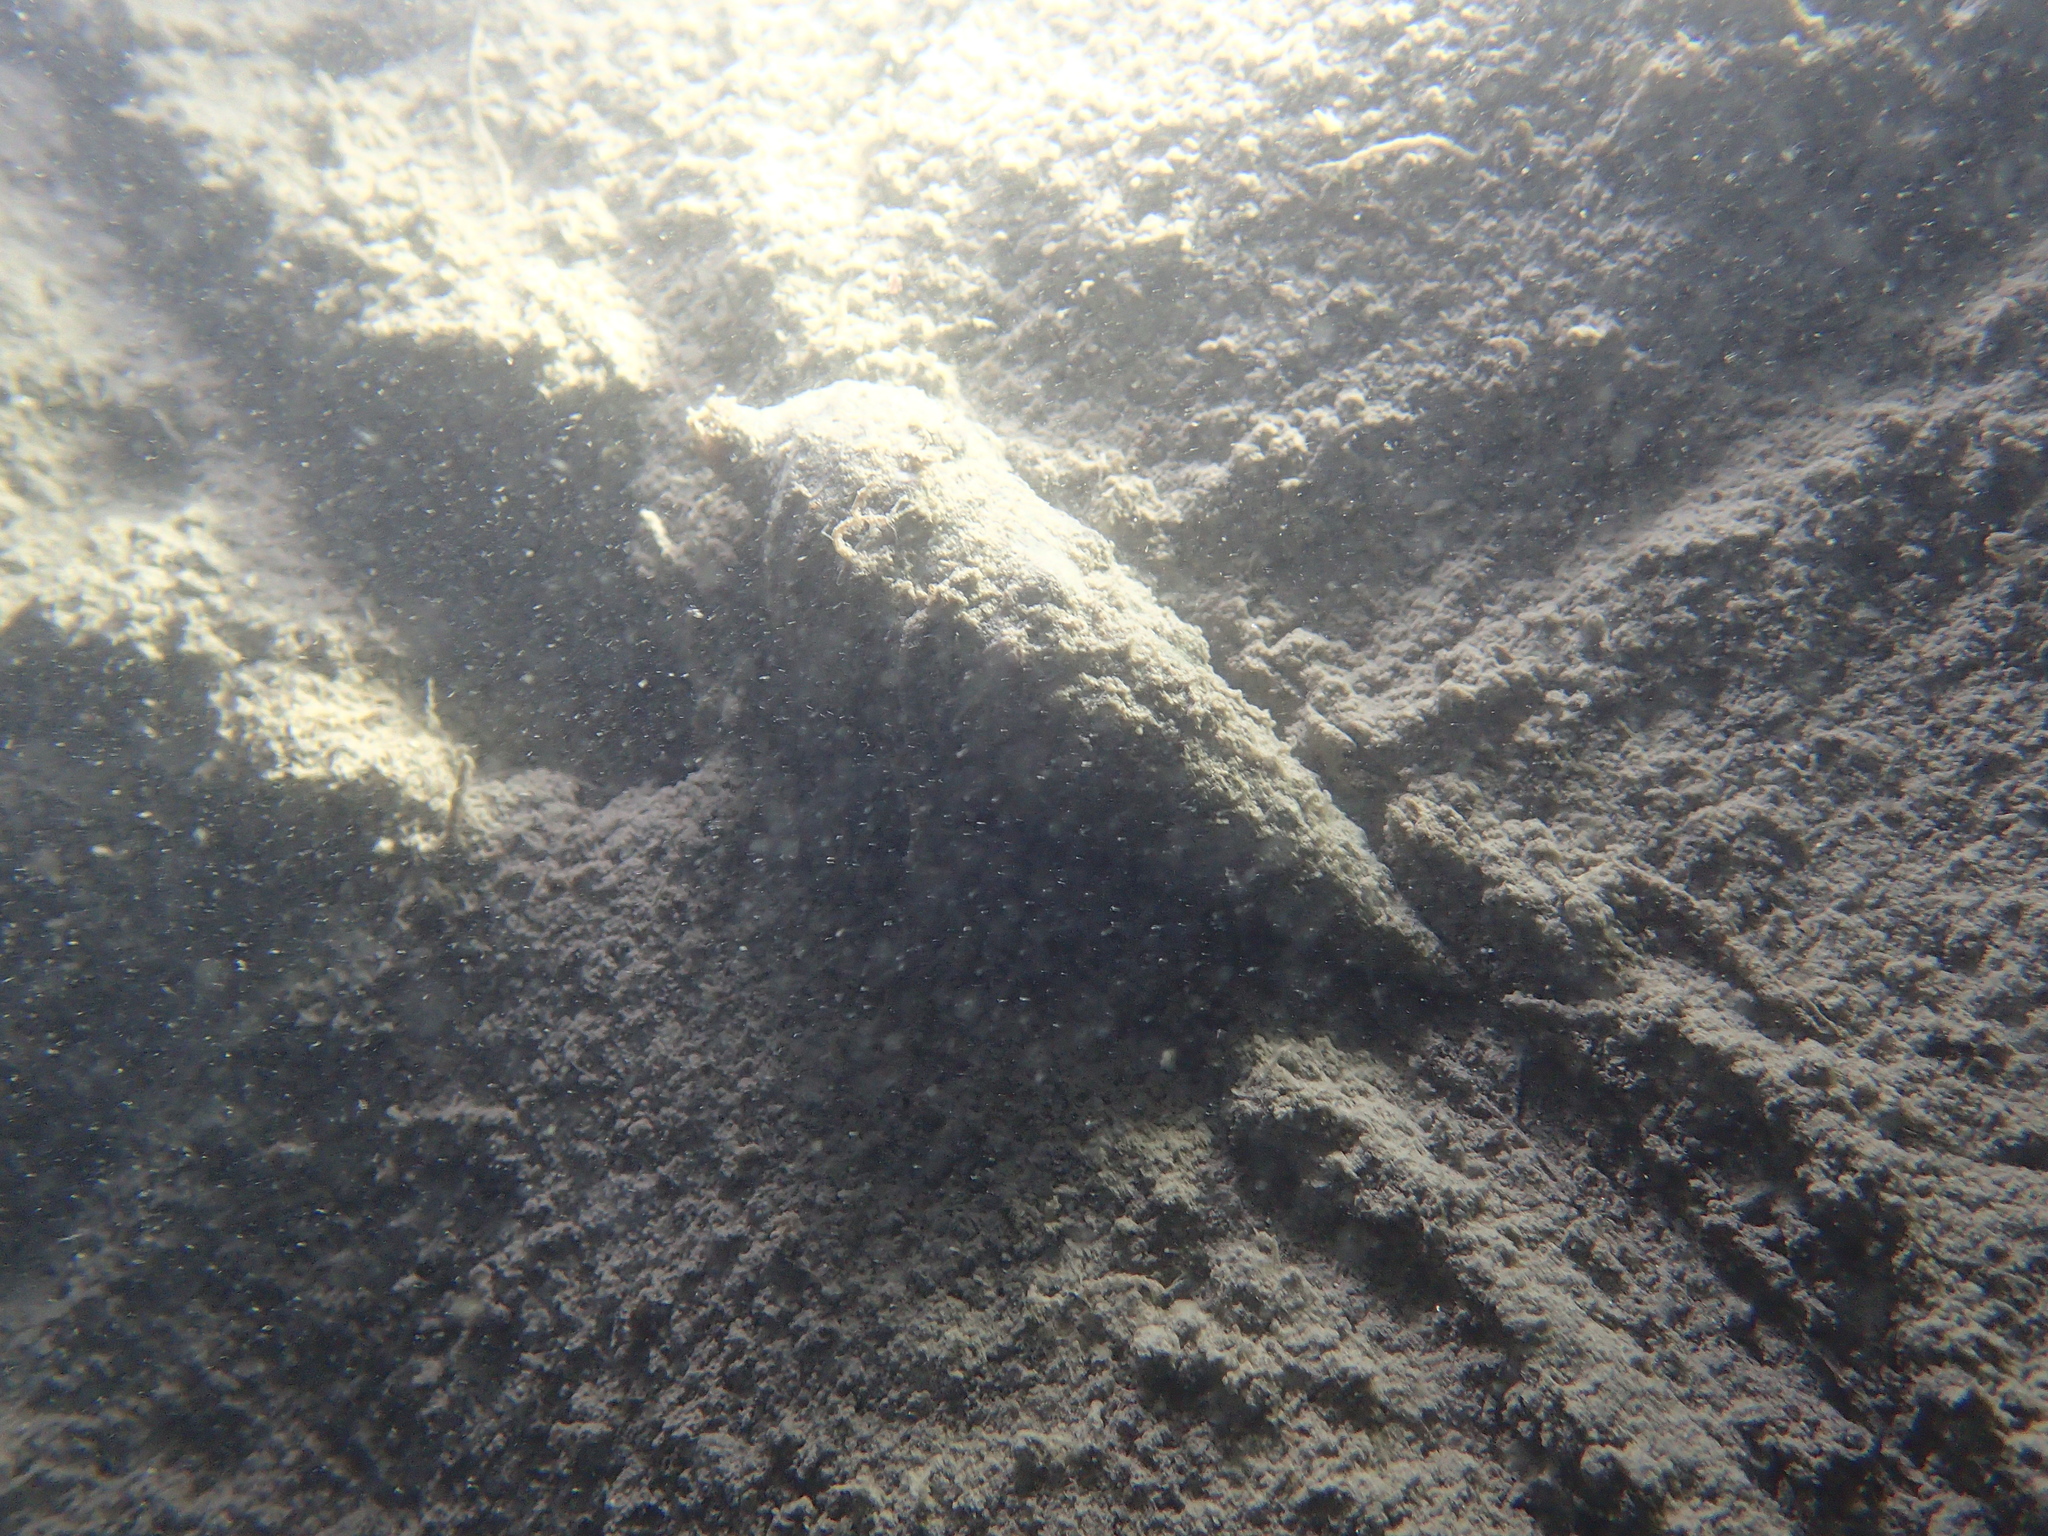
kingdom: Animalia
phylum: Mollusca
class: Gastropoda
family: Cerithiidae
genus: Cerithium
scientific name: Cerithium vulgatum
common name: European cerith
